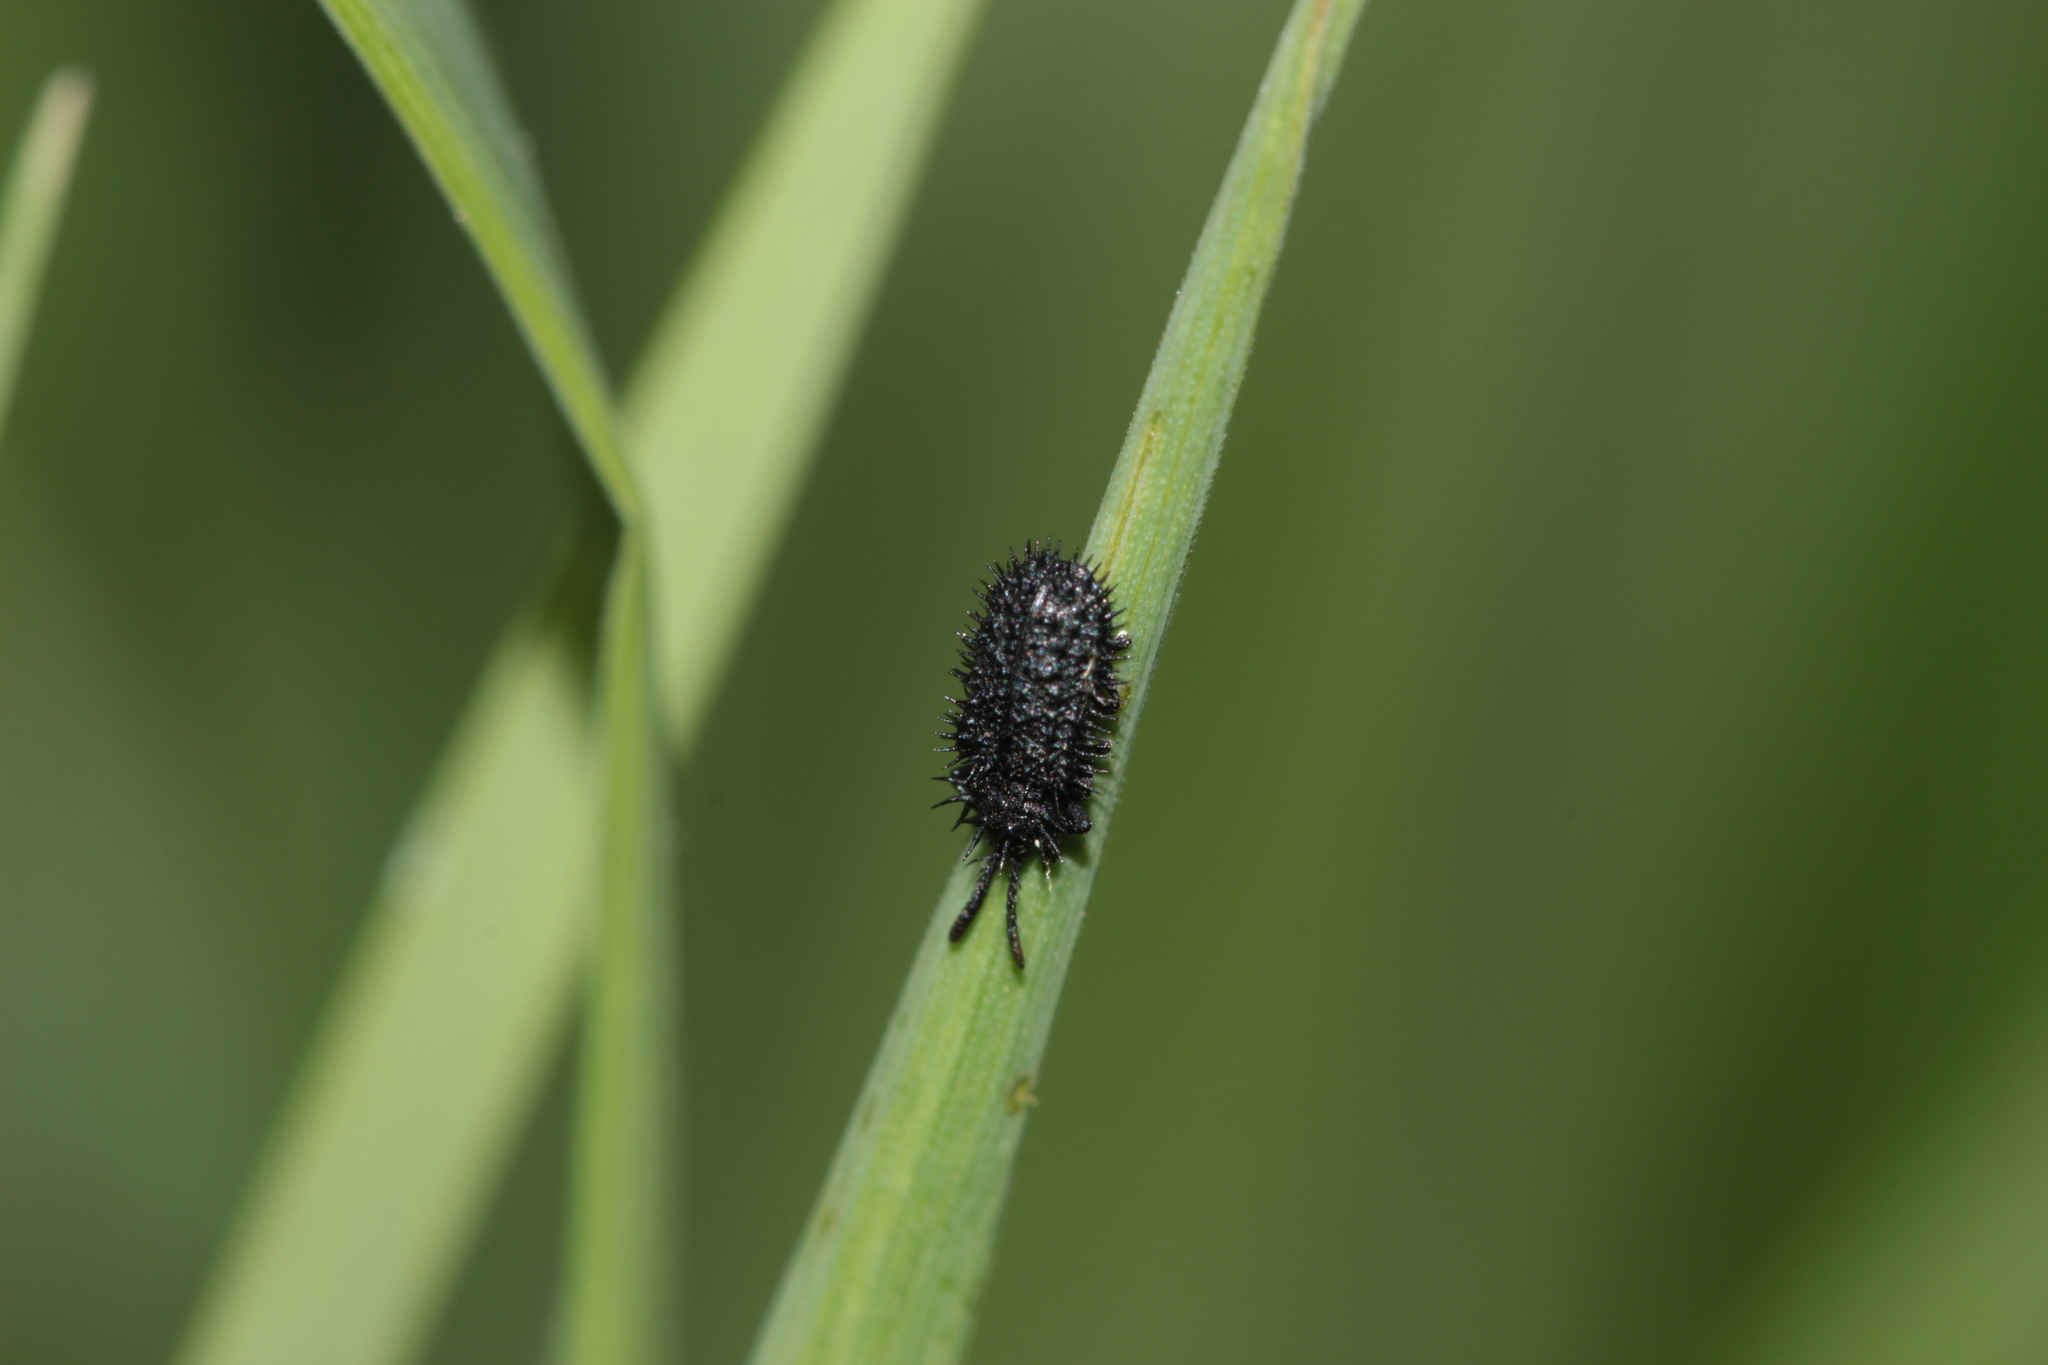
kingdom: Animalia
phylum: Arthropoda
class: Insecta
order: Coleoptera
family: Chrysomelidae
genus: Hispa
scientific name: Hispa atra
